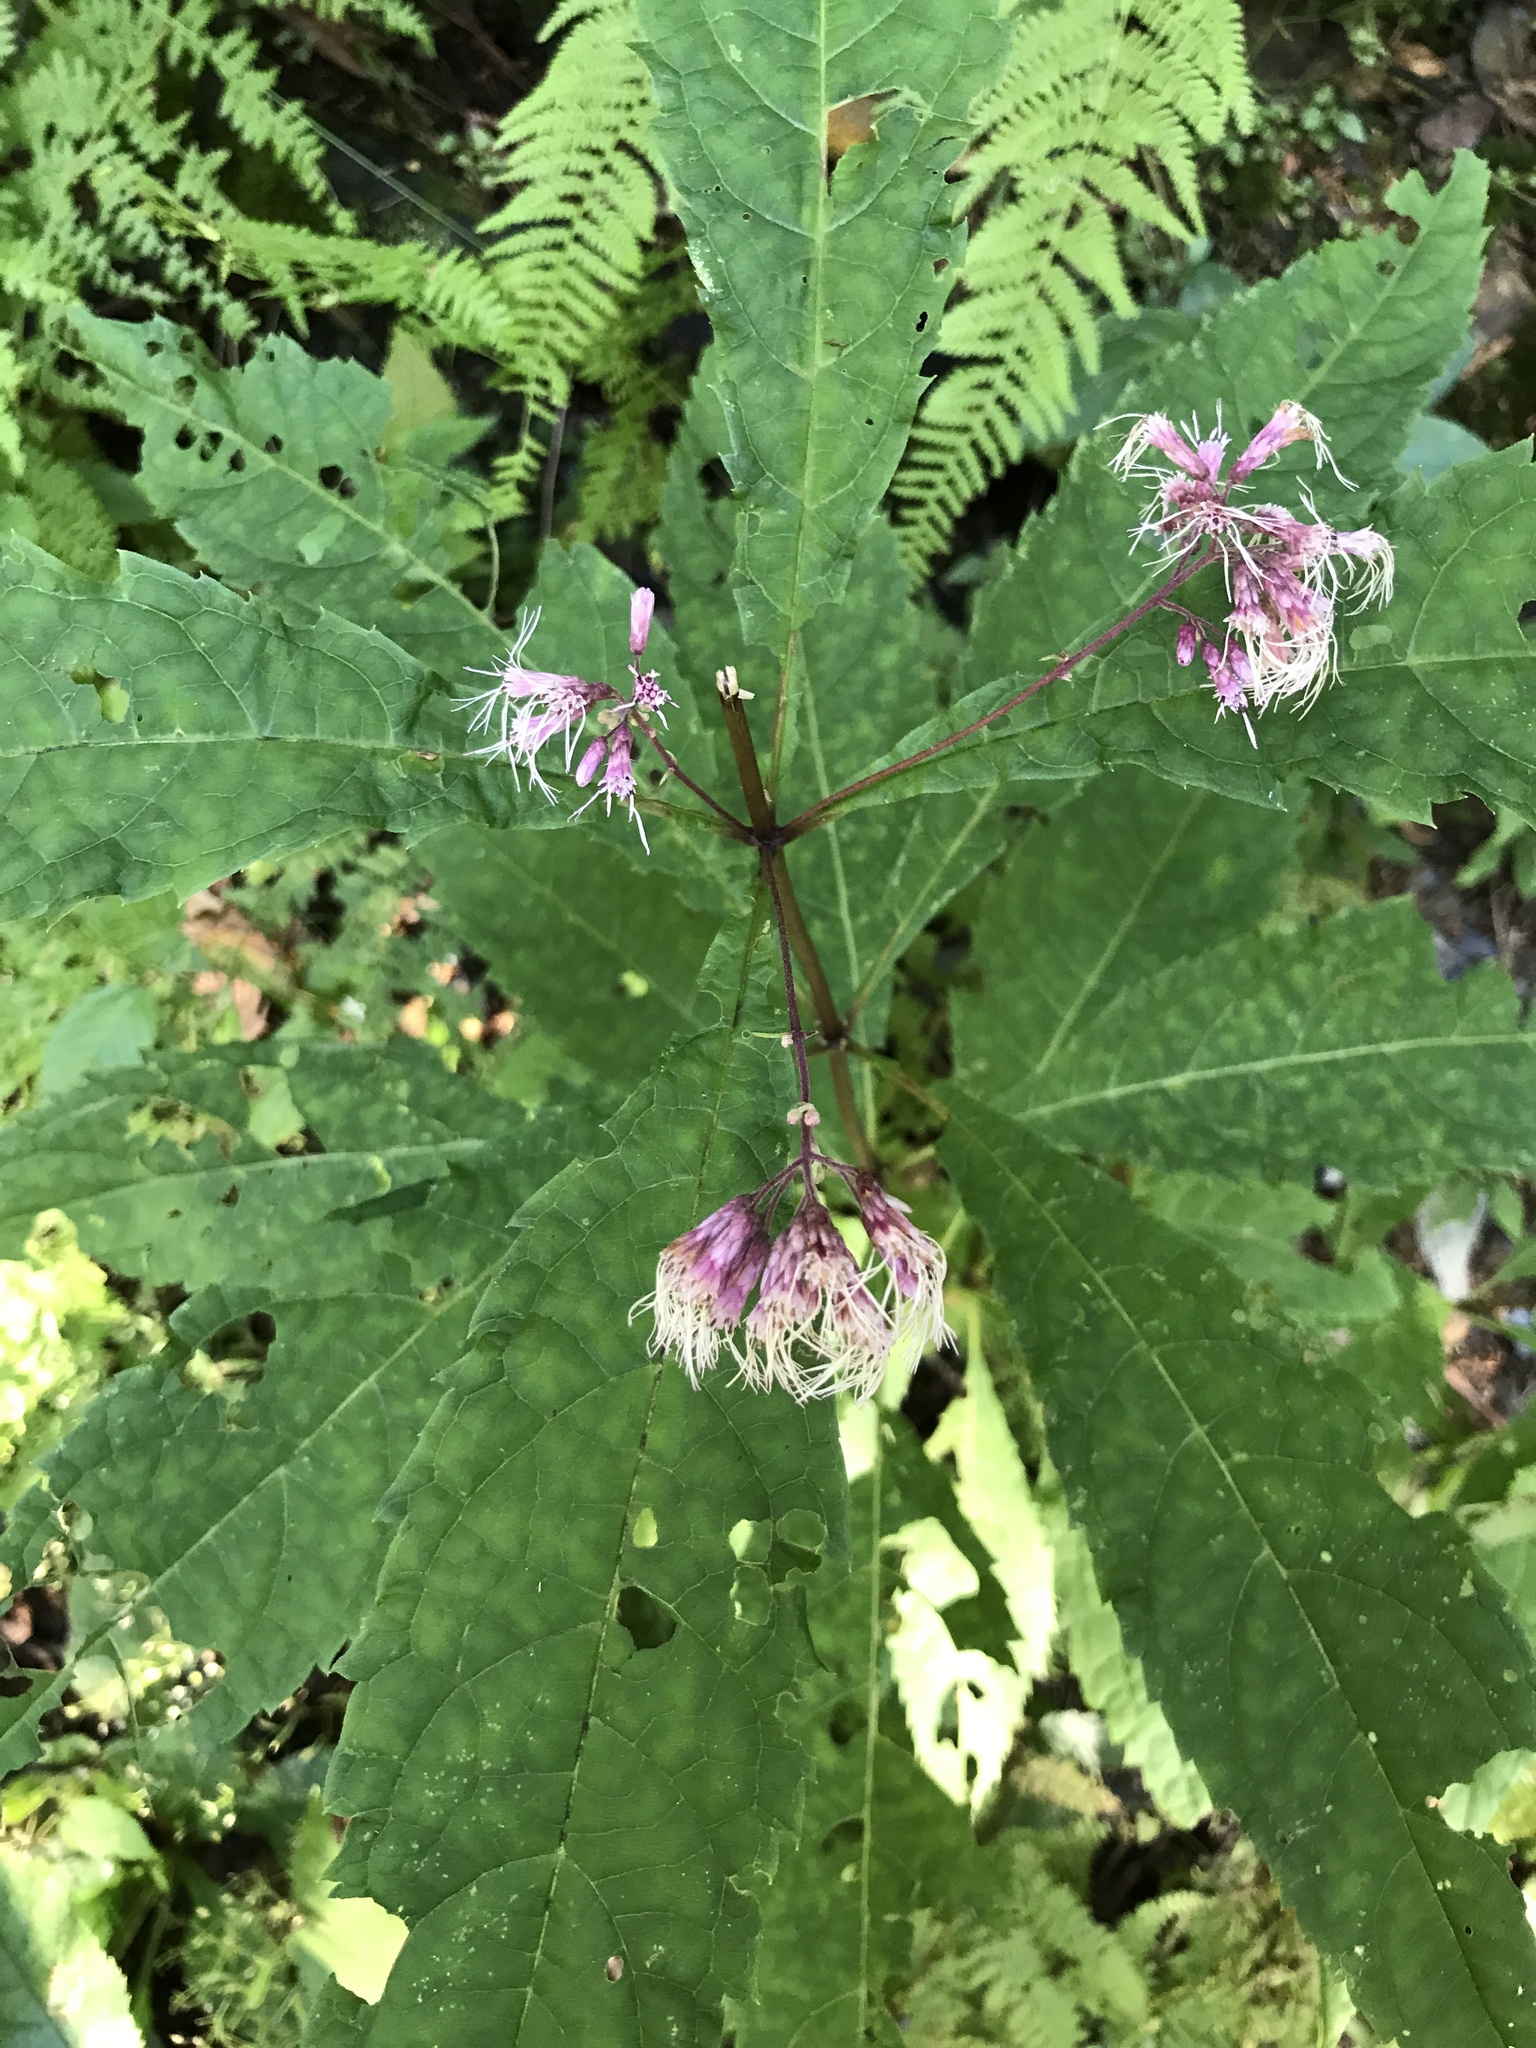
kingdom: Plantae
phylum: Tracheophyta
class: Magnoliopsida
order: Asterales
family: Asteraceae
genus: Eutrochium
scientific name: Eutrochium purpureum
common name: Gravelroot
